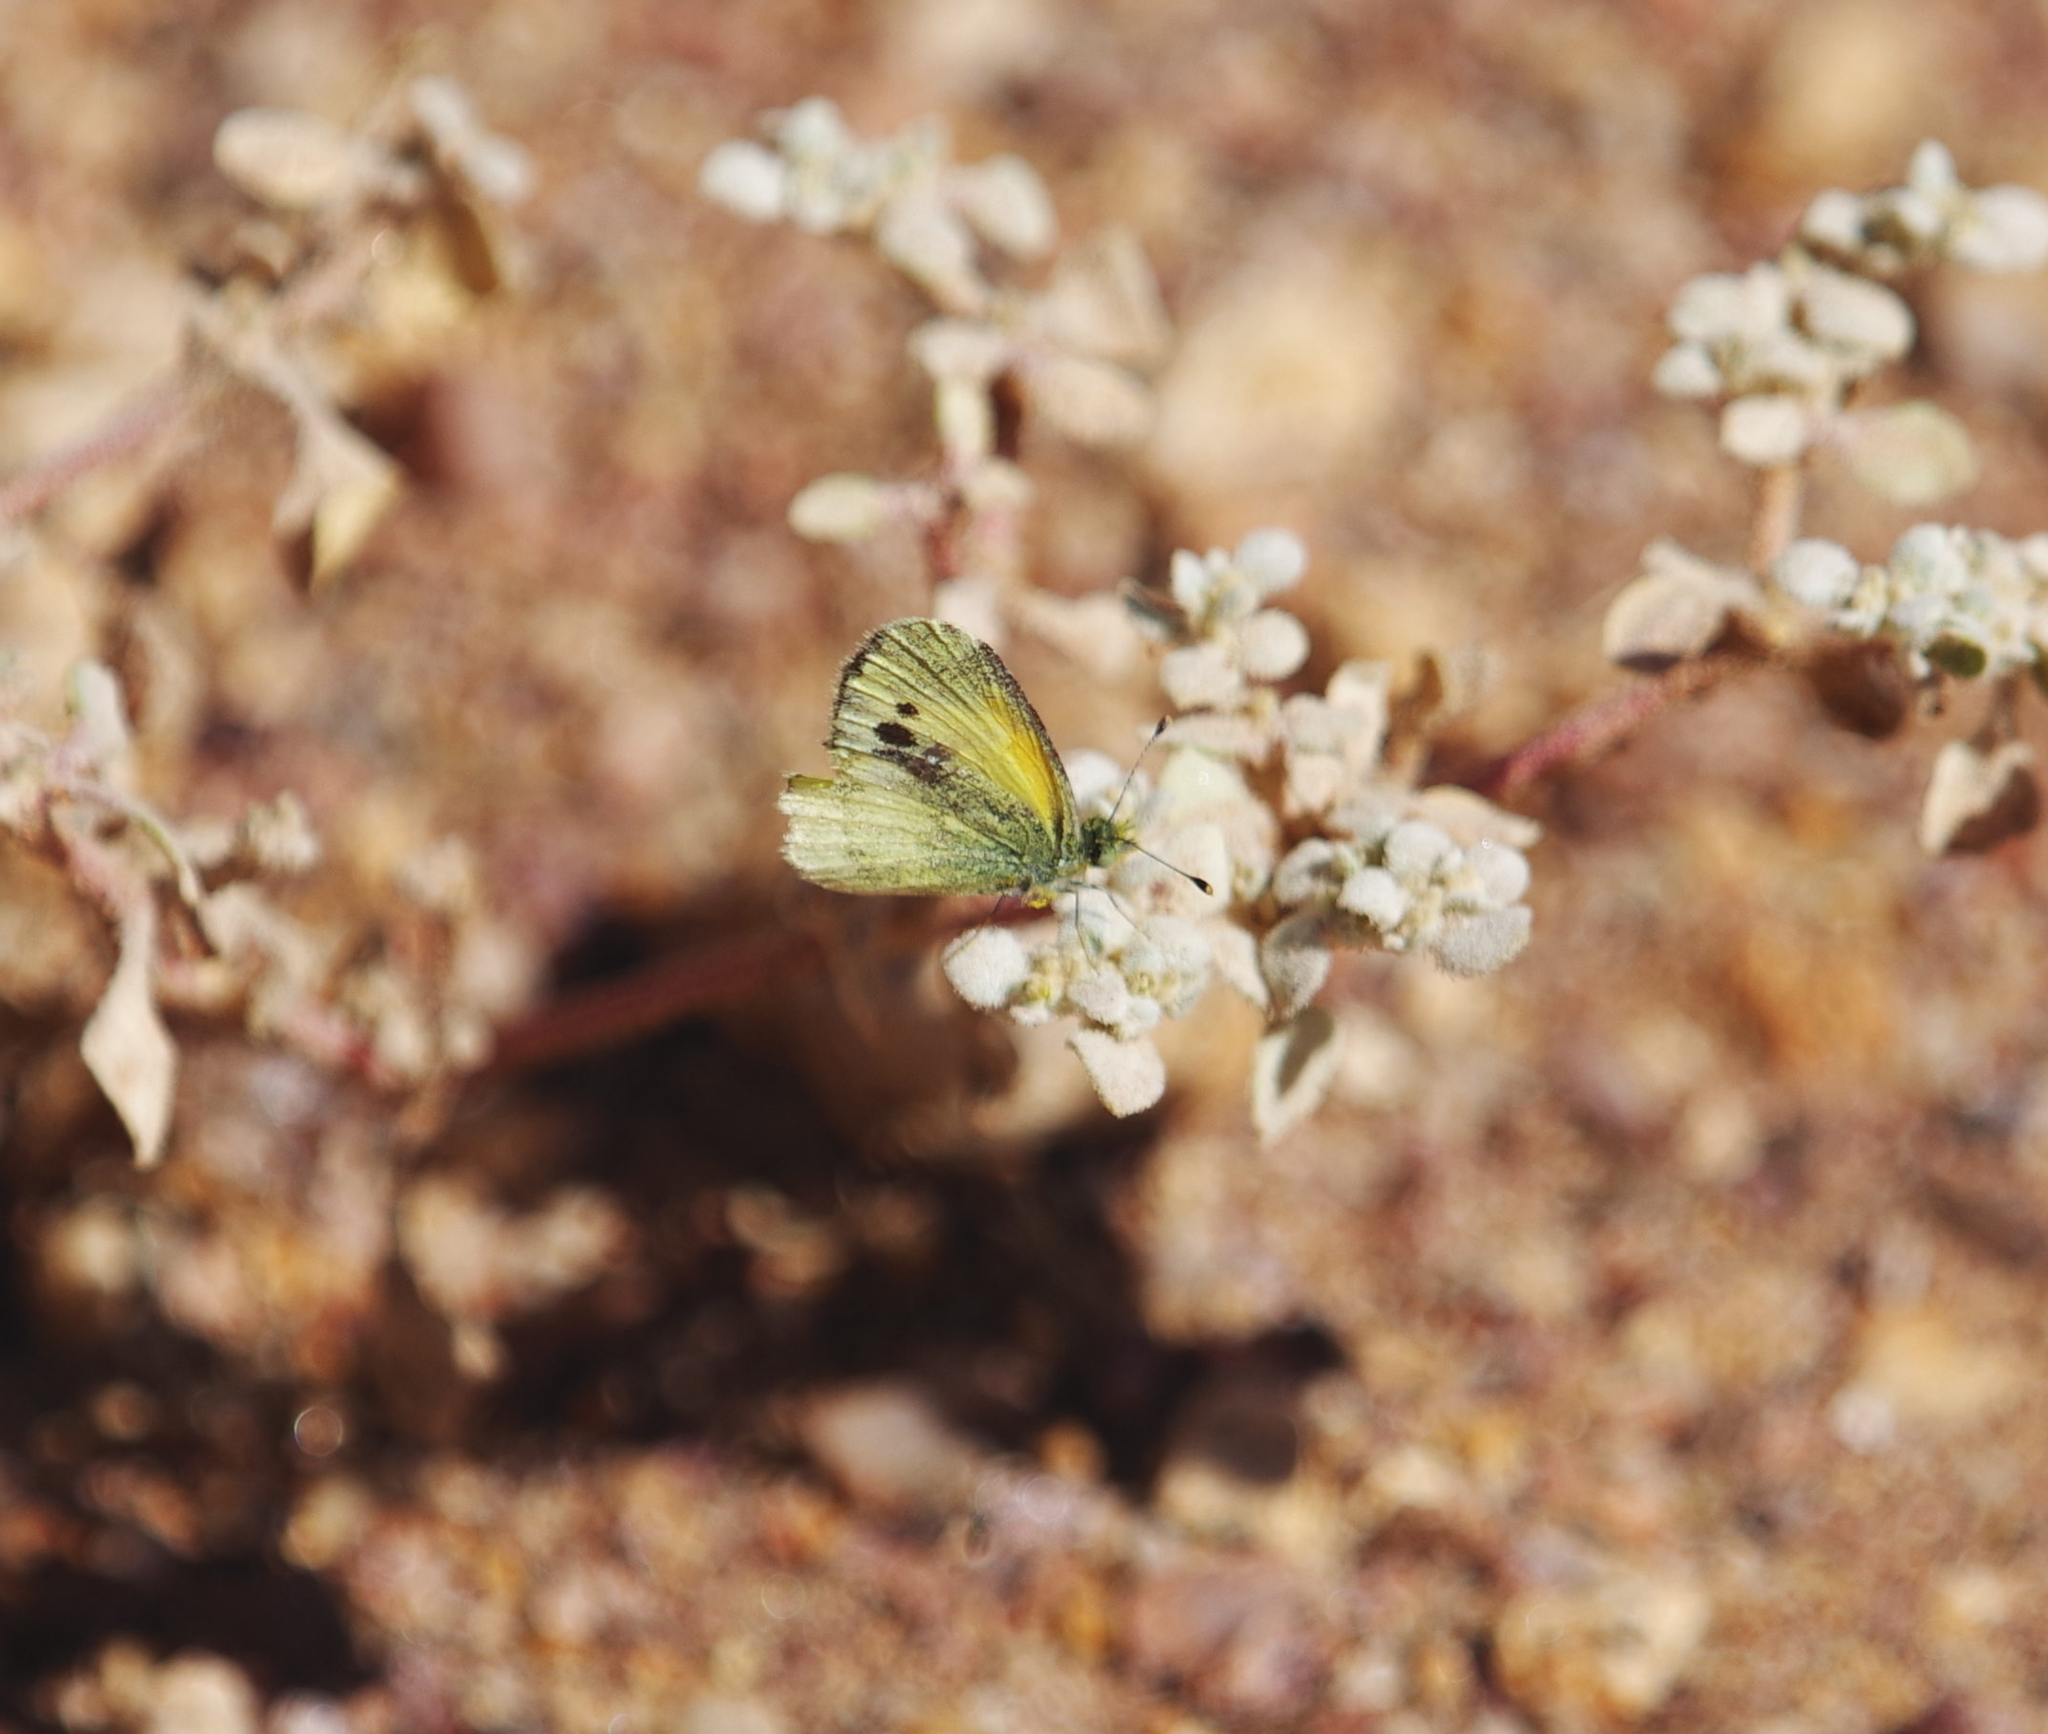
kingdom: Animalia
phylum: Arthropoda
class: Insecta
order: Lepidoptera
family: Pieridae
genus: Nathalis
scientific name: Nathalis iole
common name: Dainty sulphur
